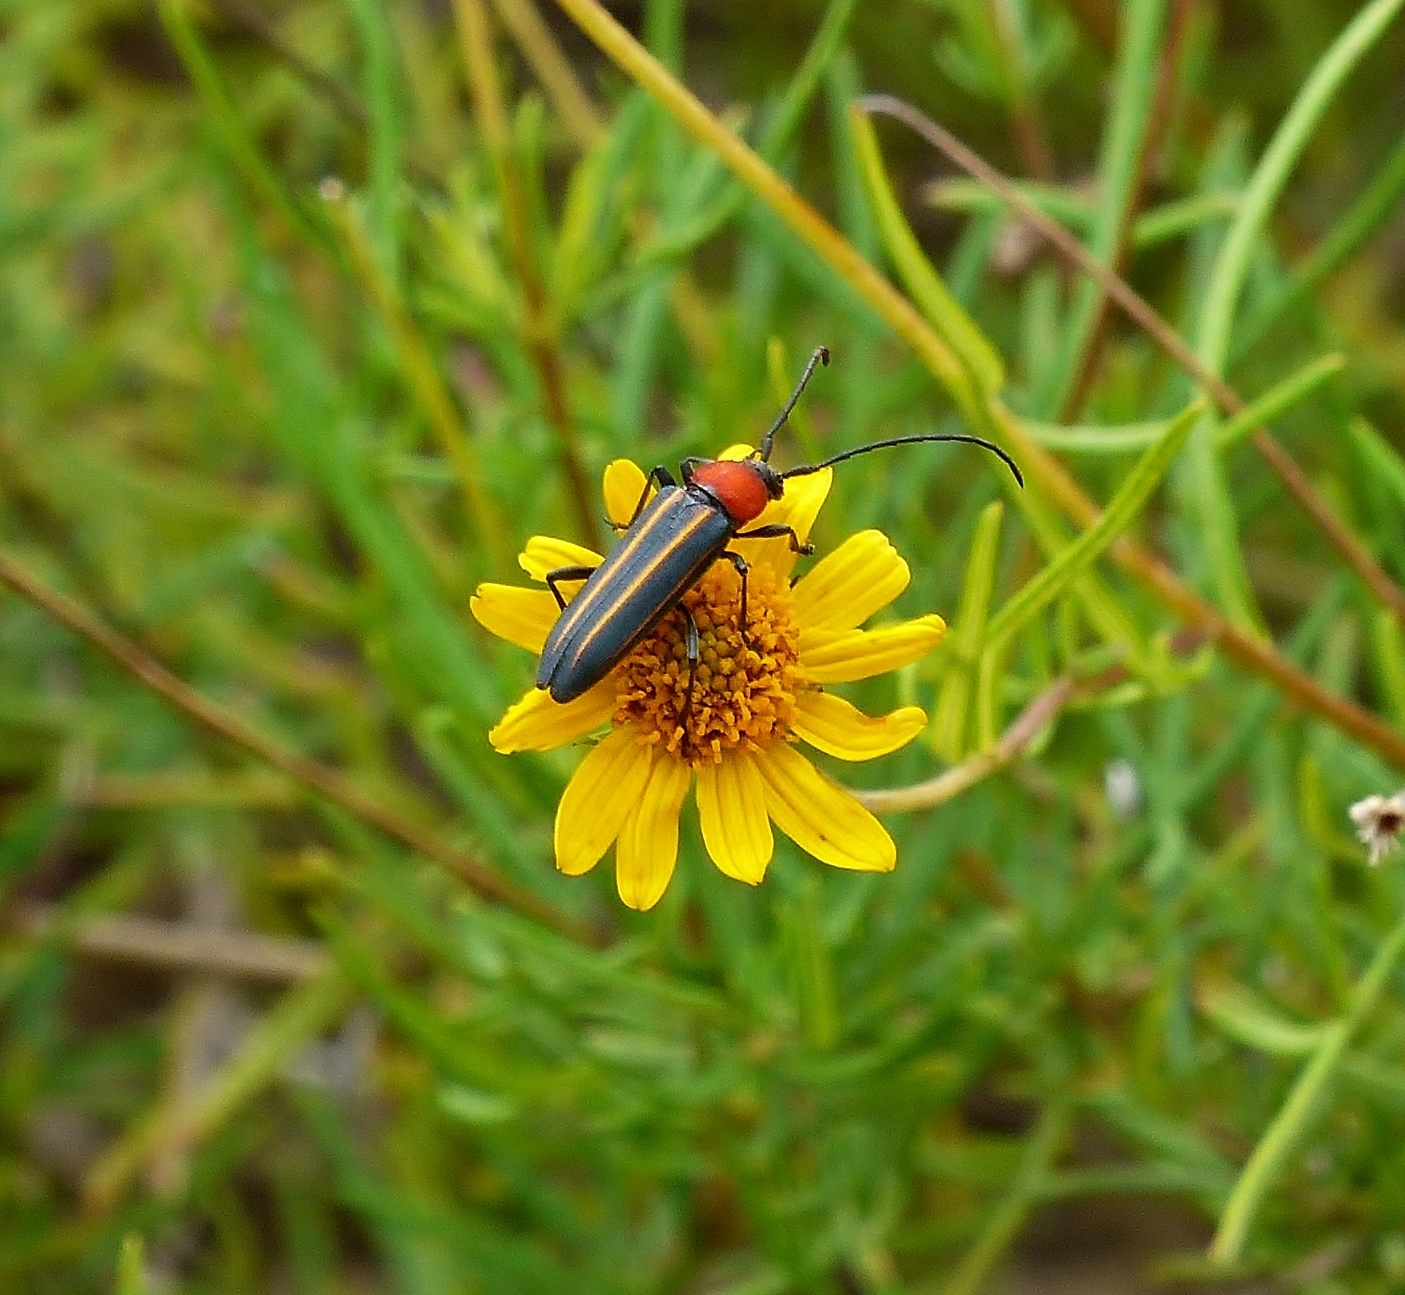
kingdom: Animalia
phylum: Arthropoda
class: Insecta
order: Coleoptera
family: Cerambycidae
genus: Mannophorus
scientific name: Mannophorus laetus
